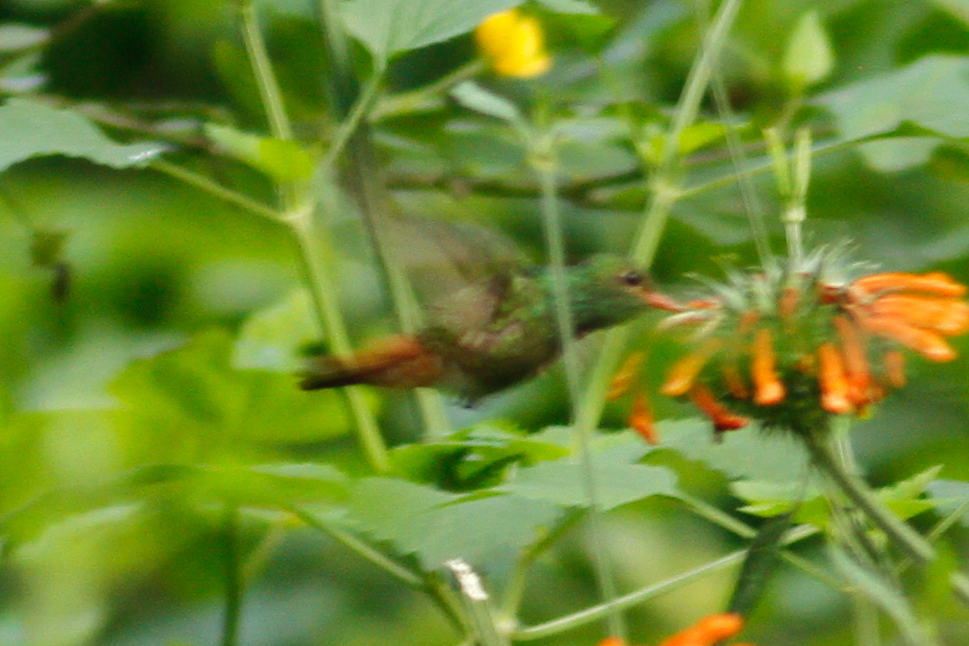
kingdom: Animalia
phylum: Chordata
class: Aves
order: Apodiformes
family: Trochilidae
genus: Amazilia
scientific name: Amazilia tzacatl
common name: Rufous-tailed hummingbird
